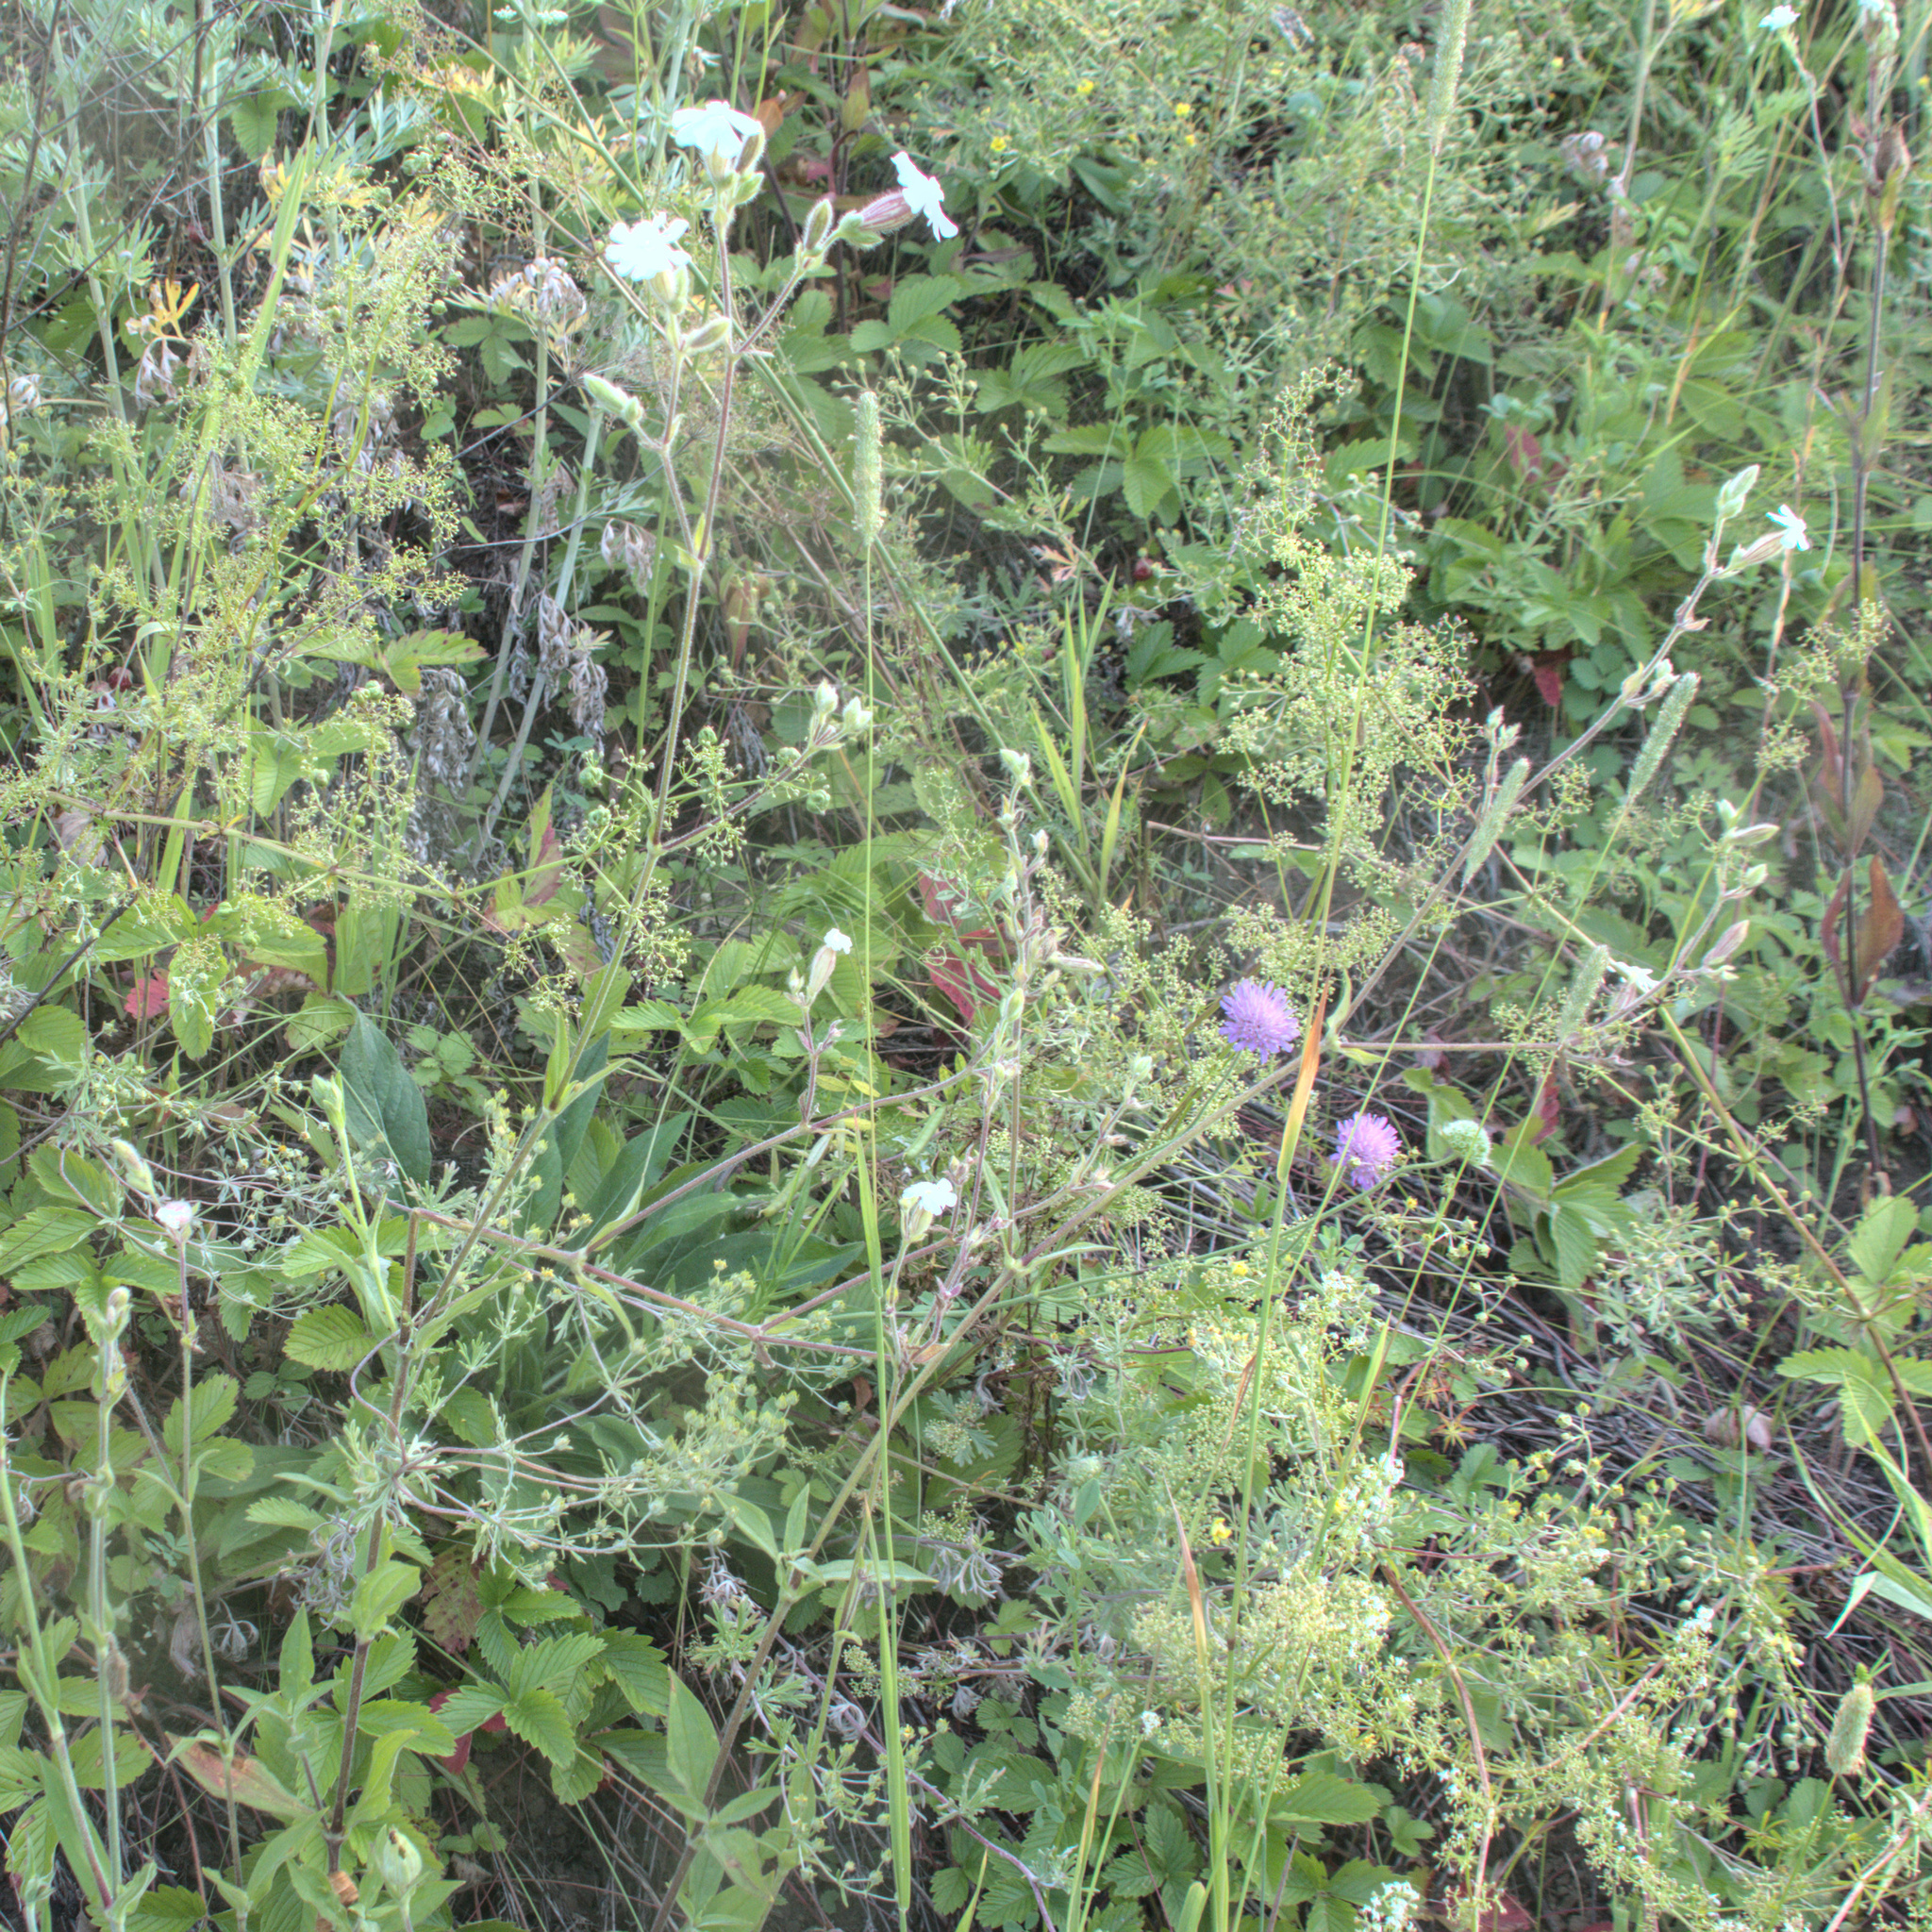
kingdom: Plantae
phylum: Tracheophyta
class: Magnoliopsida
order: Caryophyllales
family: Caryophyllaceae
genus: Silene
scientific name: Silene latifolia
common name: White campion
